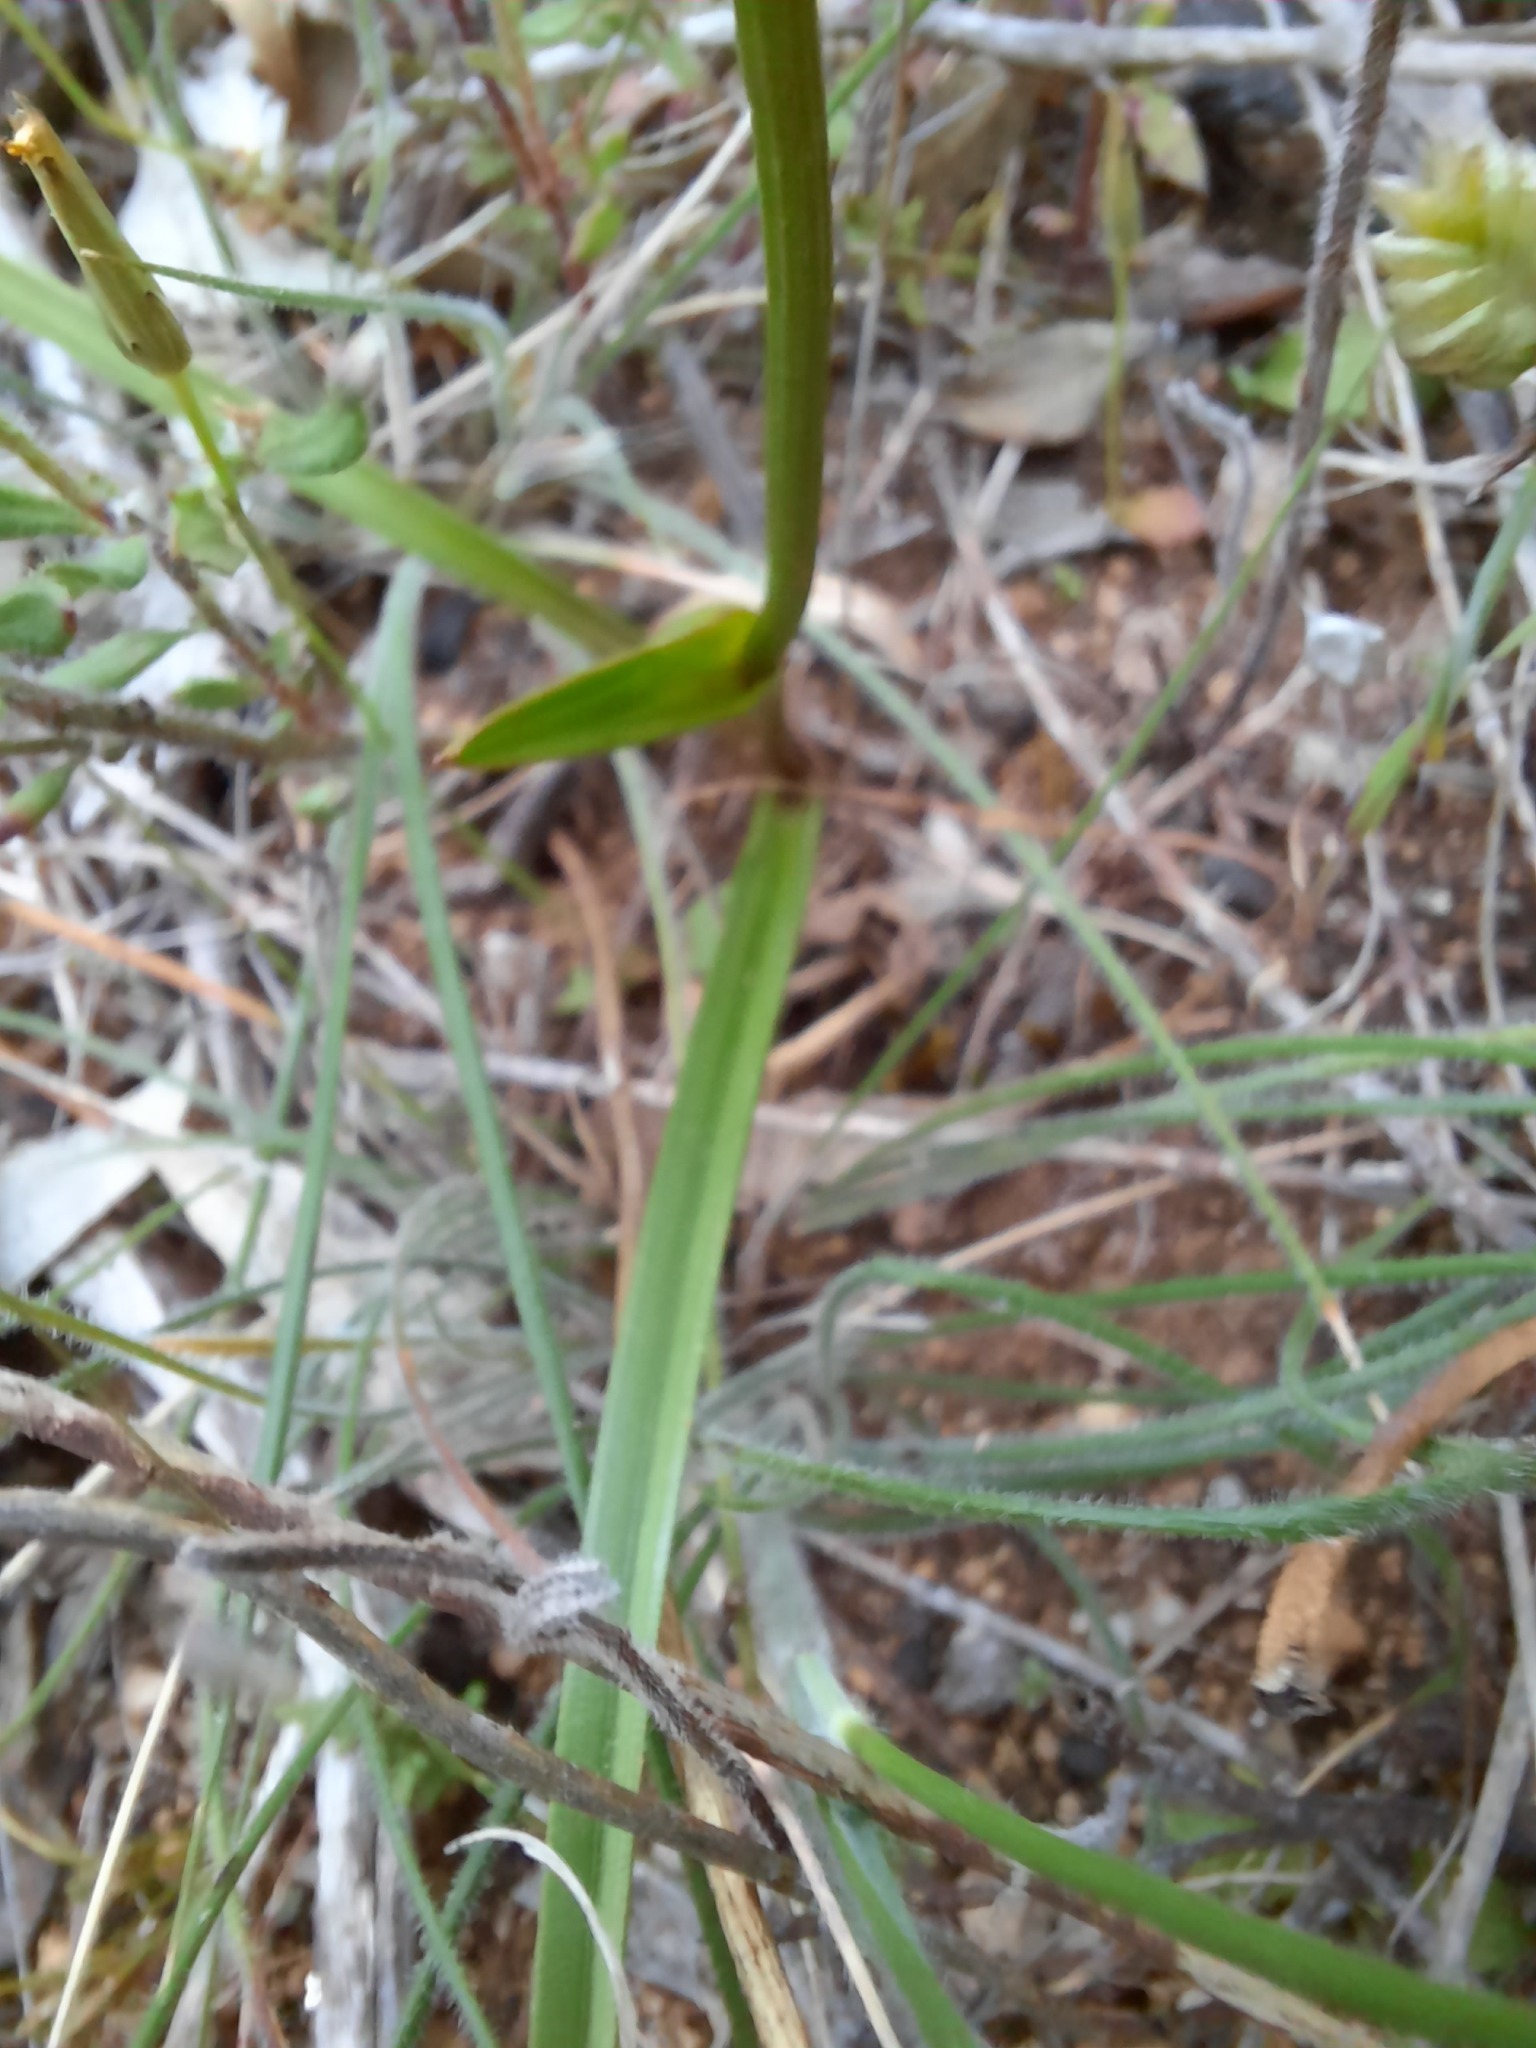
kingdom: Plantae
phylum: Tracheophyta
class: Liliopsida
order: Liliales
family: Colchicaceae
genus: Burchardia
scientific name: Burchardia umbellata
